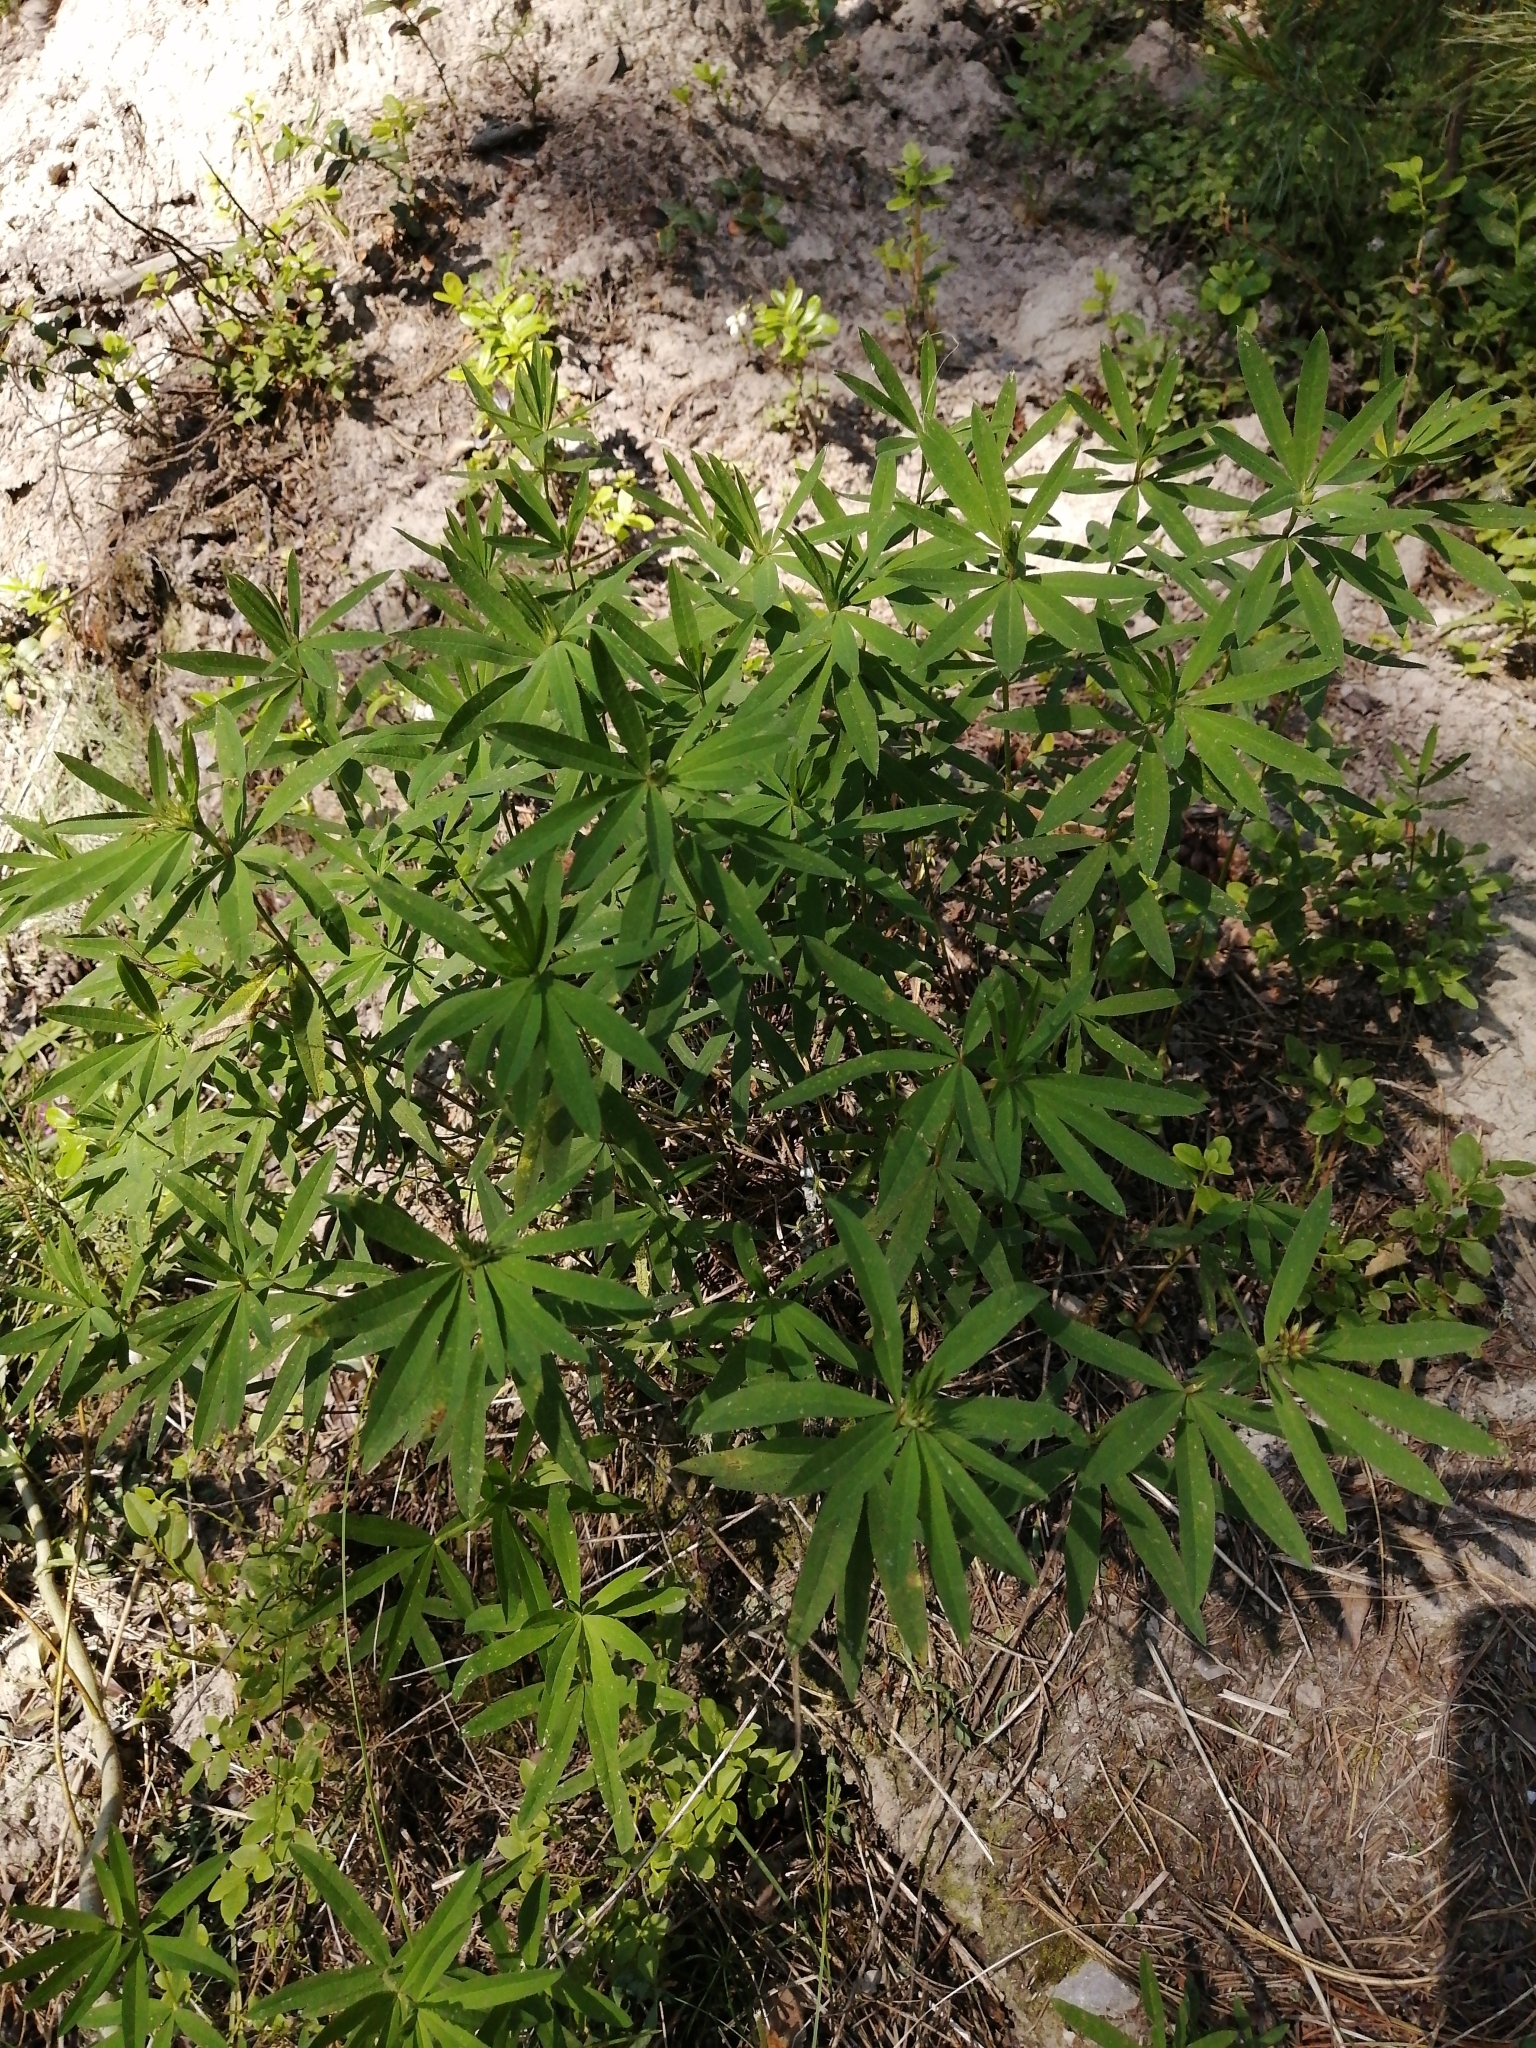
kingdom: Plantae
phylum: Tracheophyta
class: Magnoliopsida
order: Fabales
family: Fabaceae
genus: Trifolium
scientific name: Trifolium lupinaster
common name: Lupine clover
